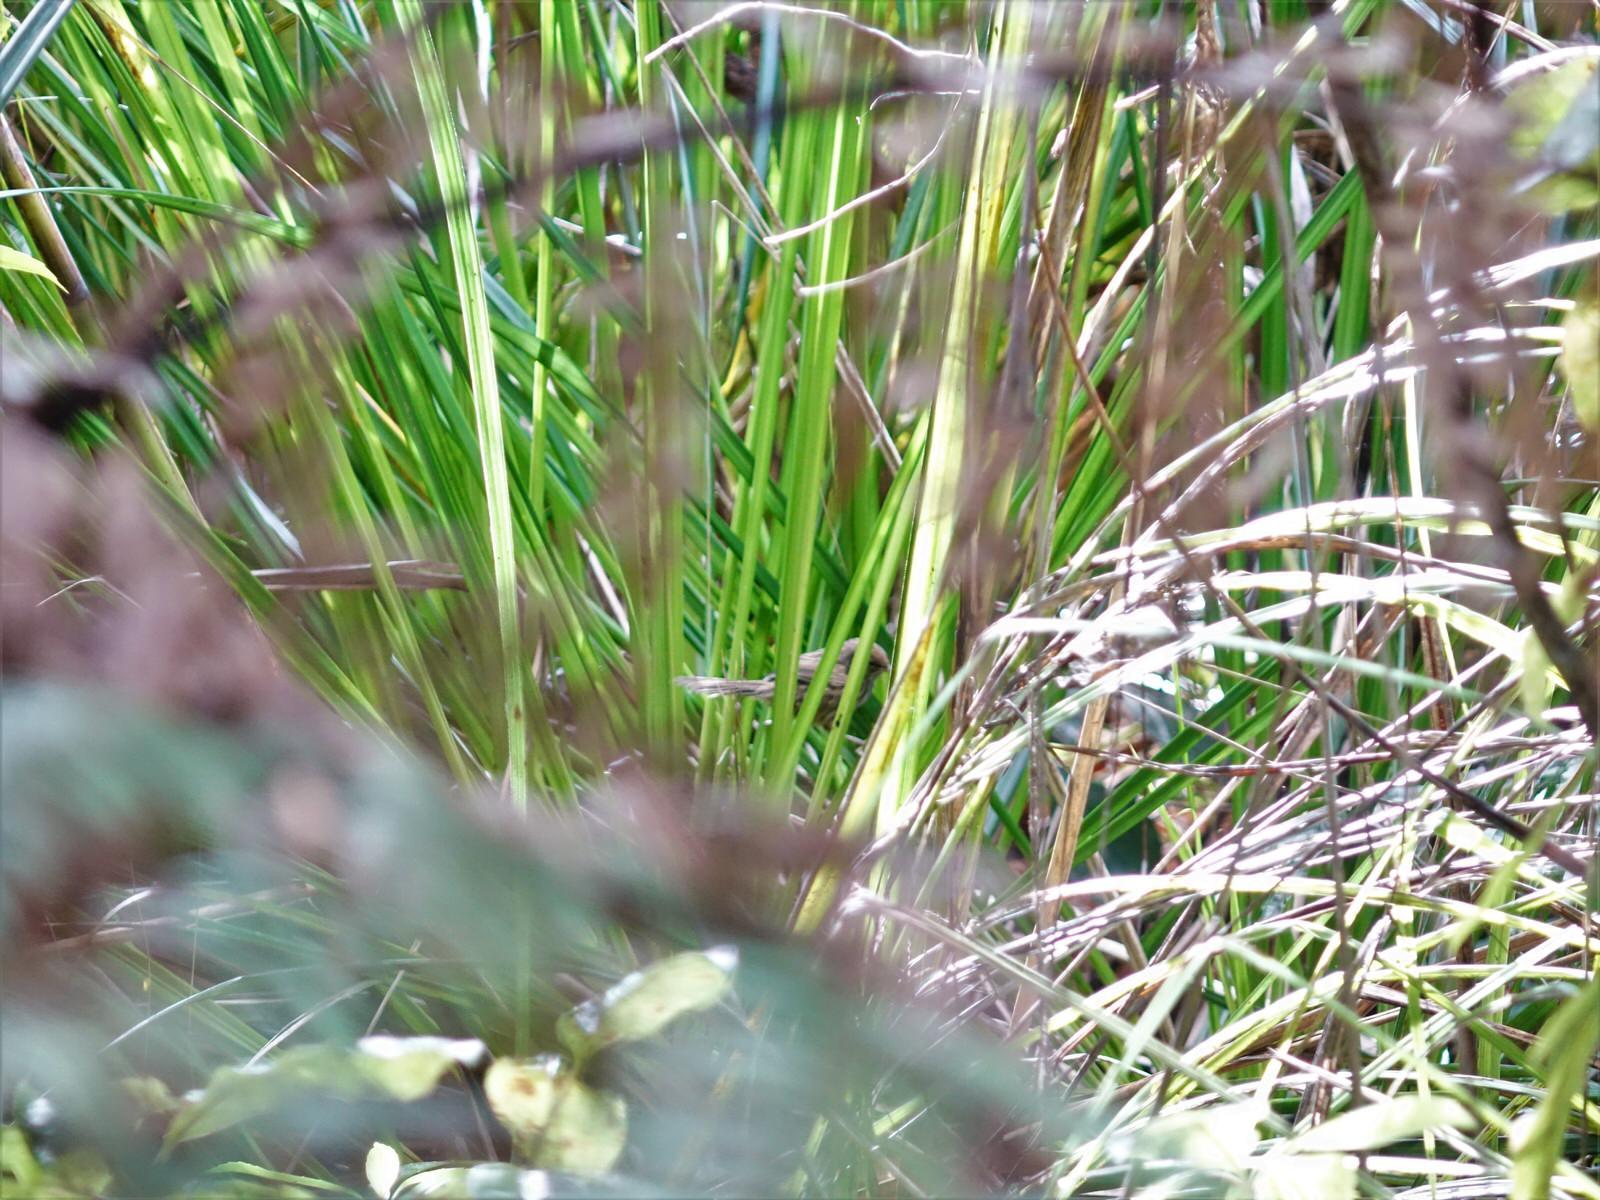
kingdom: Animalia
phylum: Chordata
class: Aves
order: Passeriformes
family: Locustellidae
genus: Megalurus
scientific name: Megalurus punctatus
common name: New zealand fernbird
